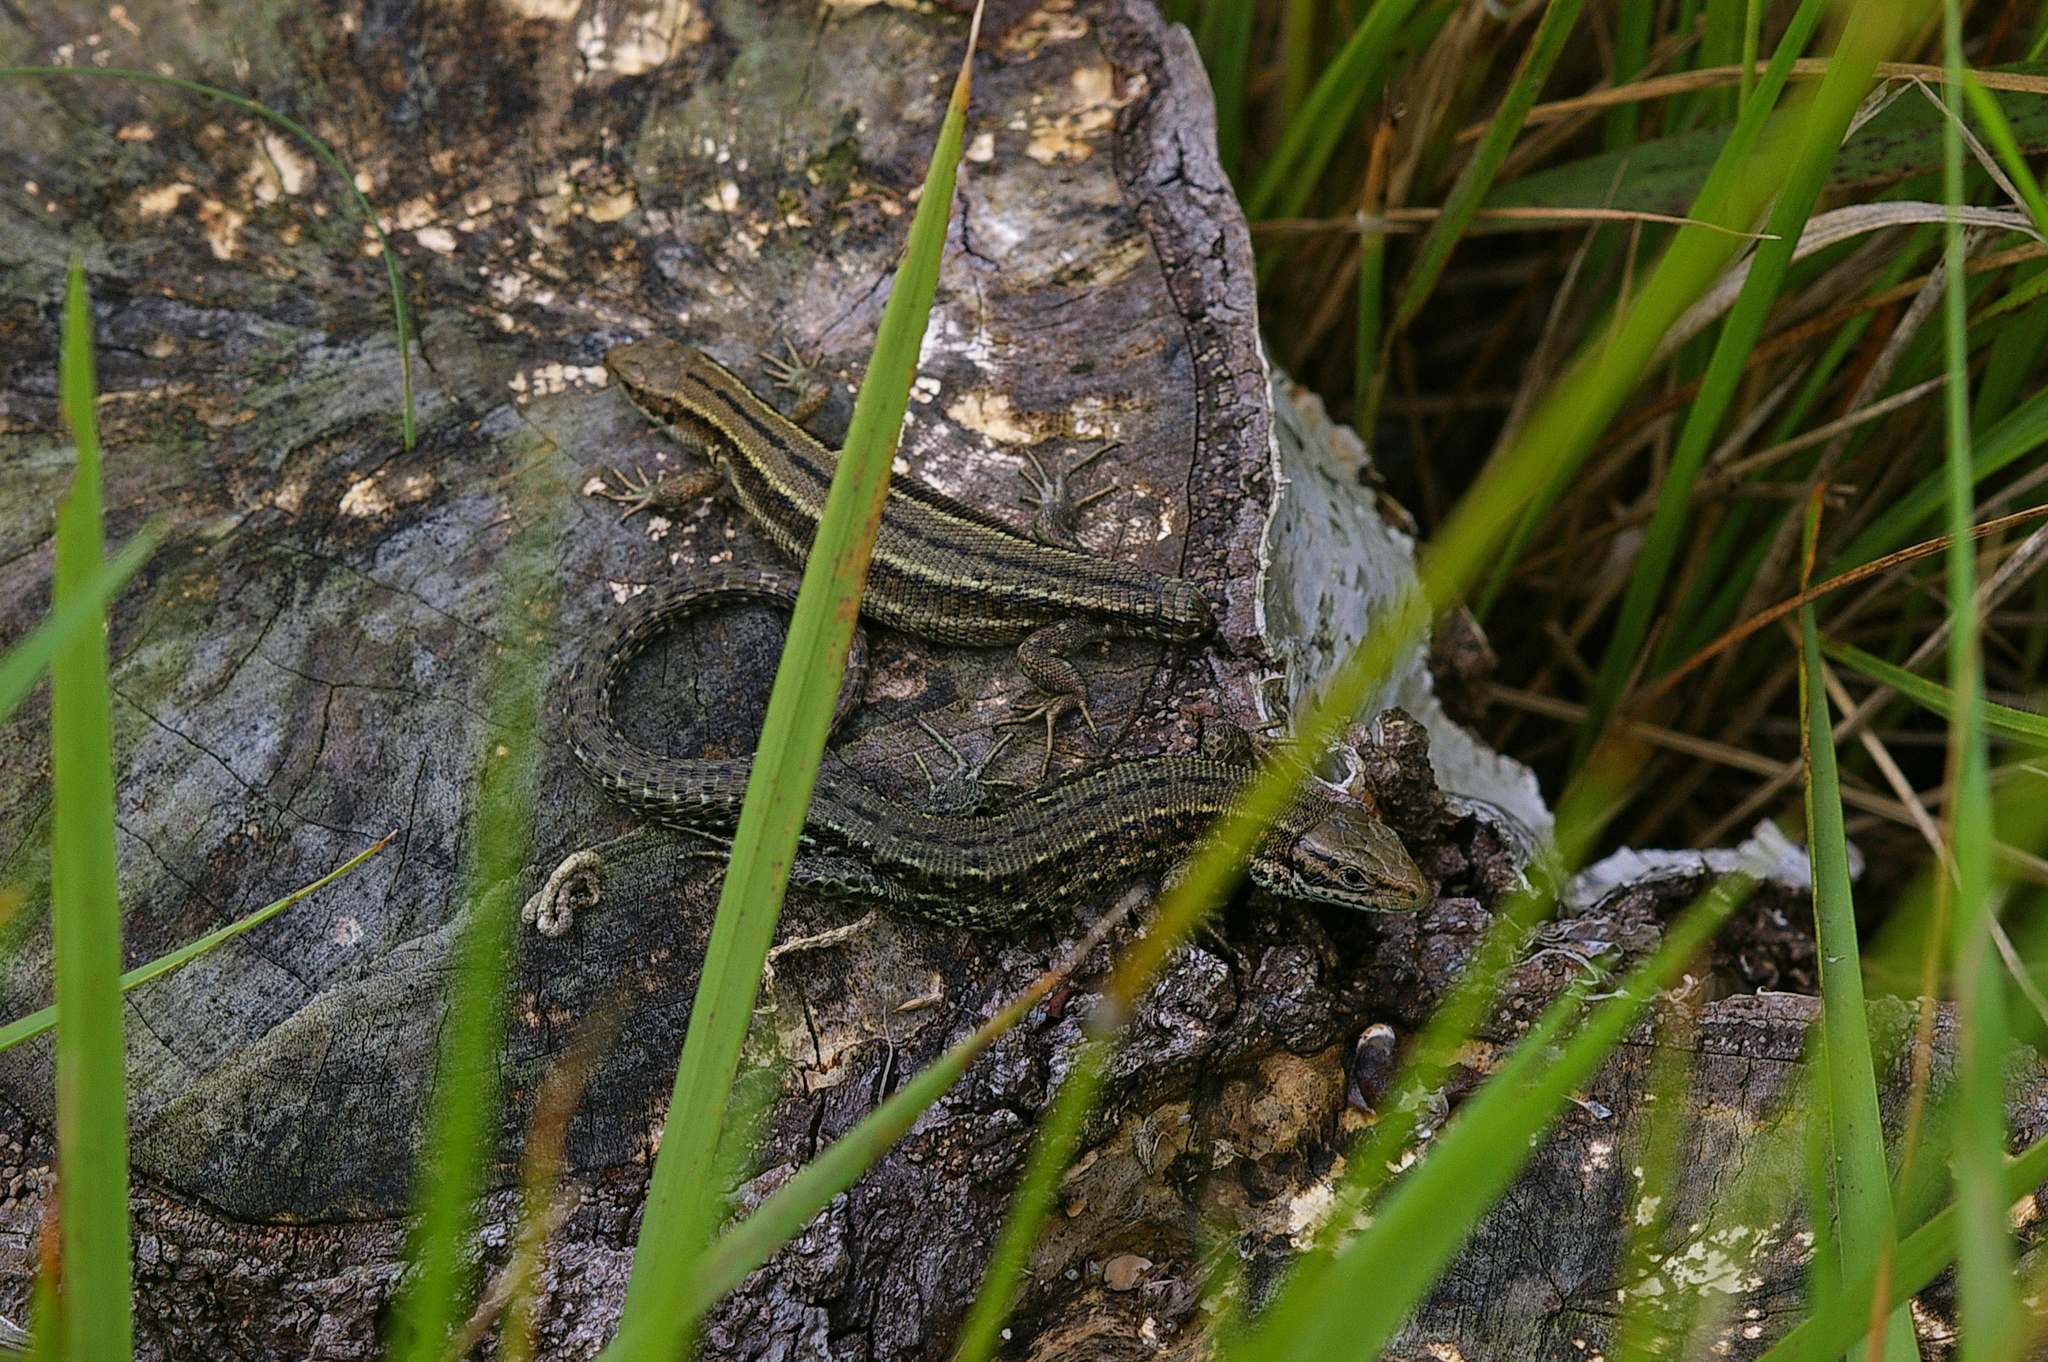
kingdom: Animalia
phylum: Chordata
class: Squamata
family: Lacertidae
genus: Zootoca
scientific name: Zootoca vivipara
